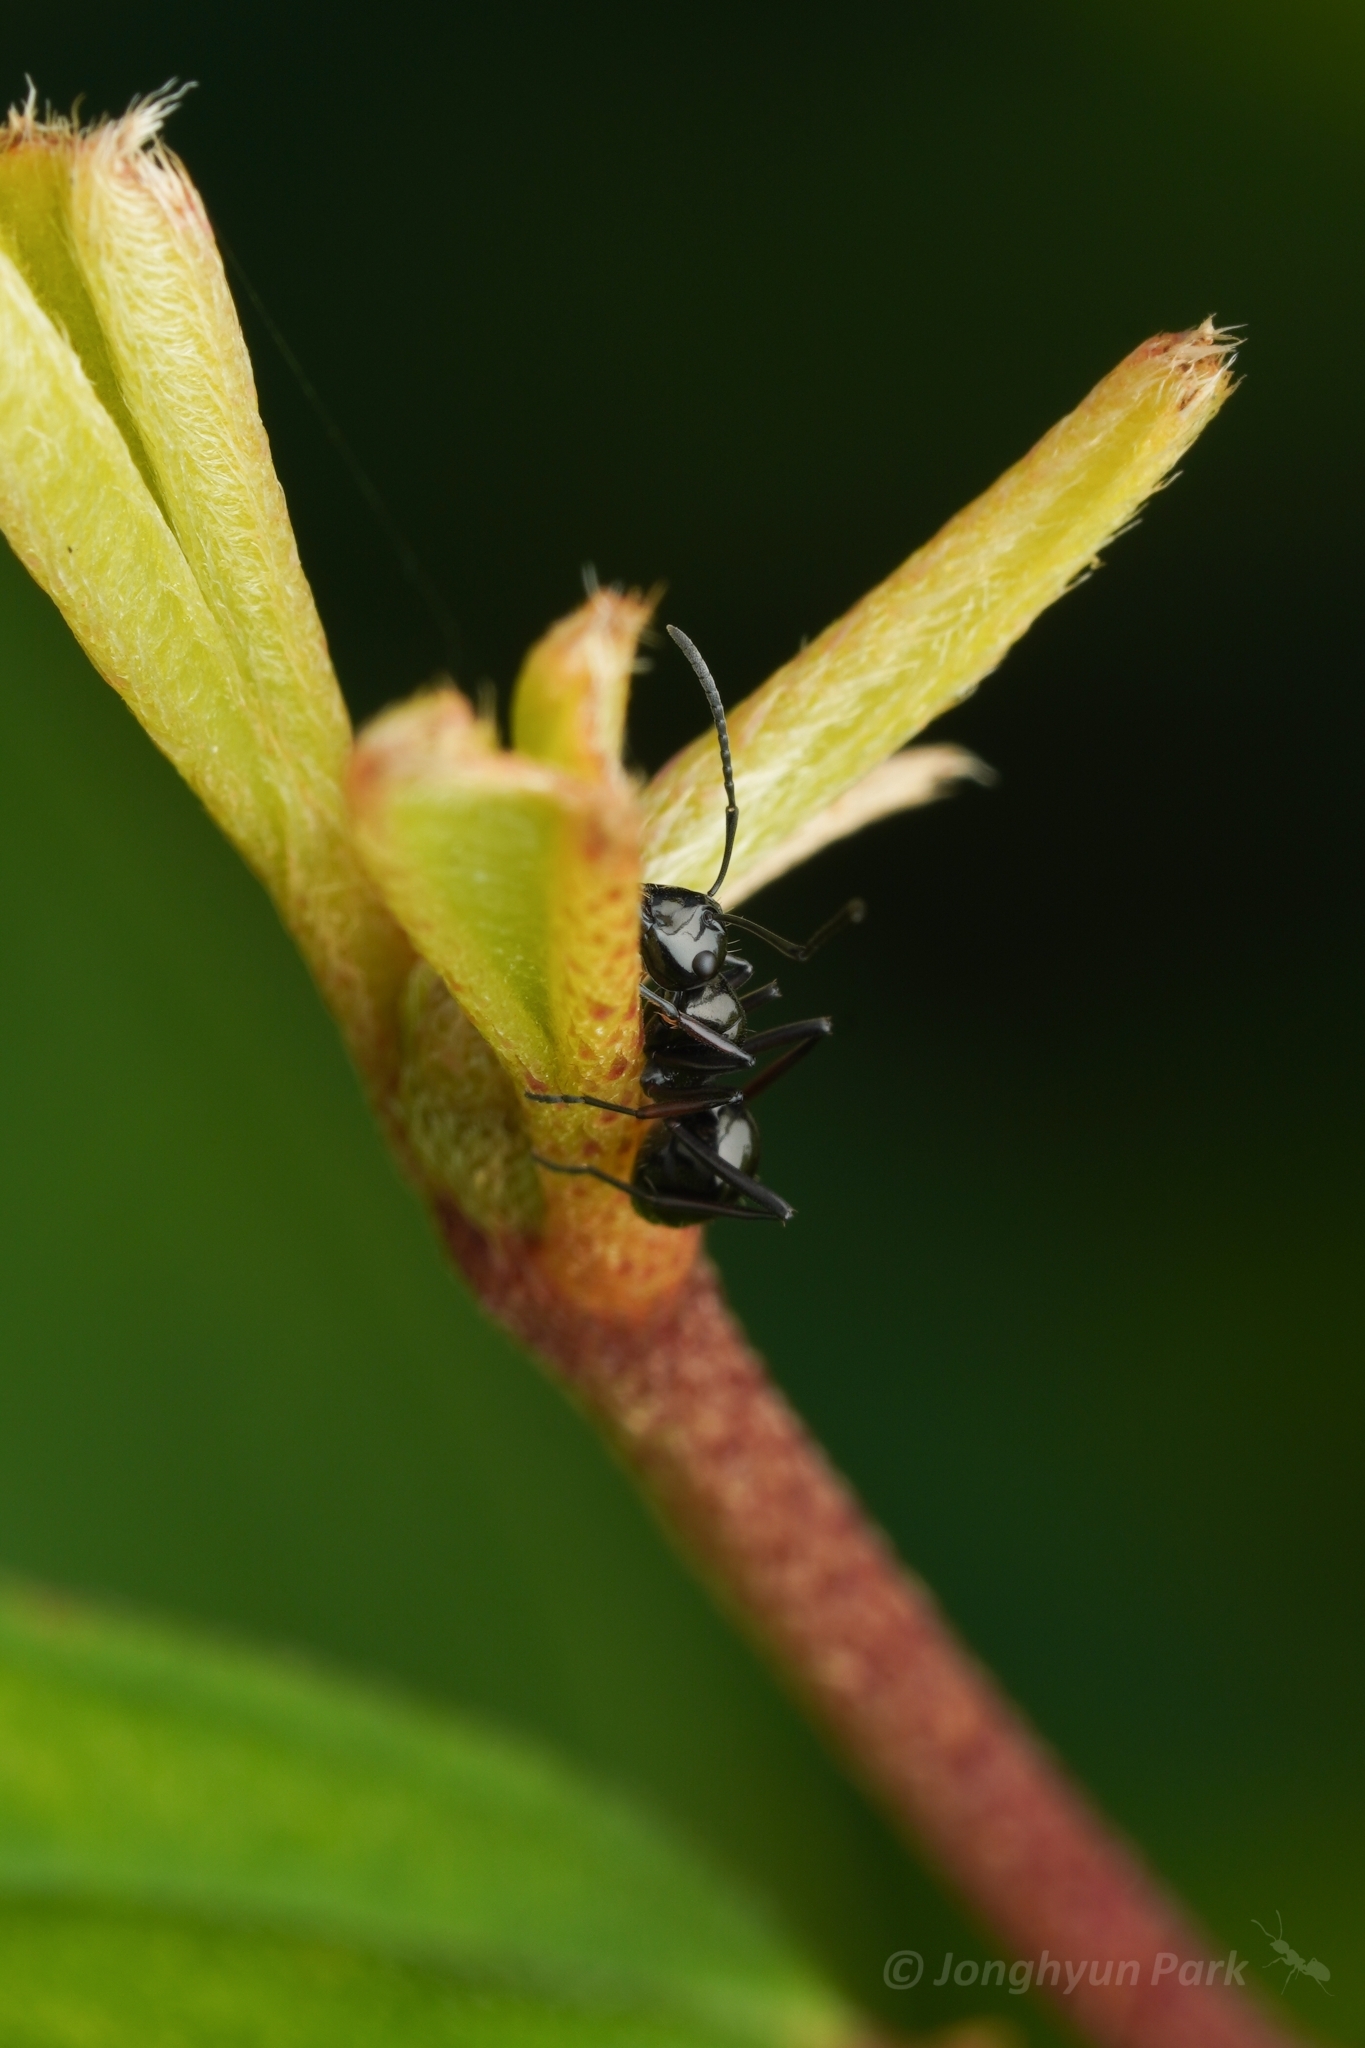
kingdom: Animalia
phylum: Arthropoda
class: Insecta
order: Hymenoptera
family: Formicidae
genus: Polyrhachis
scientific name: Polyrhachis lepida
